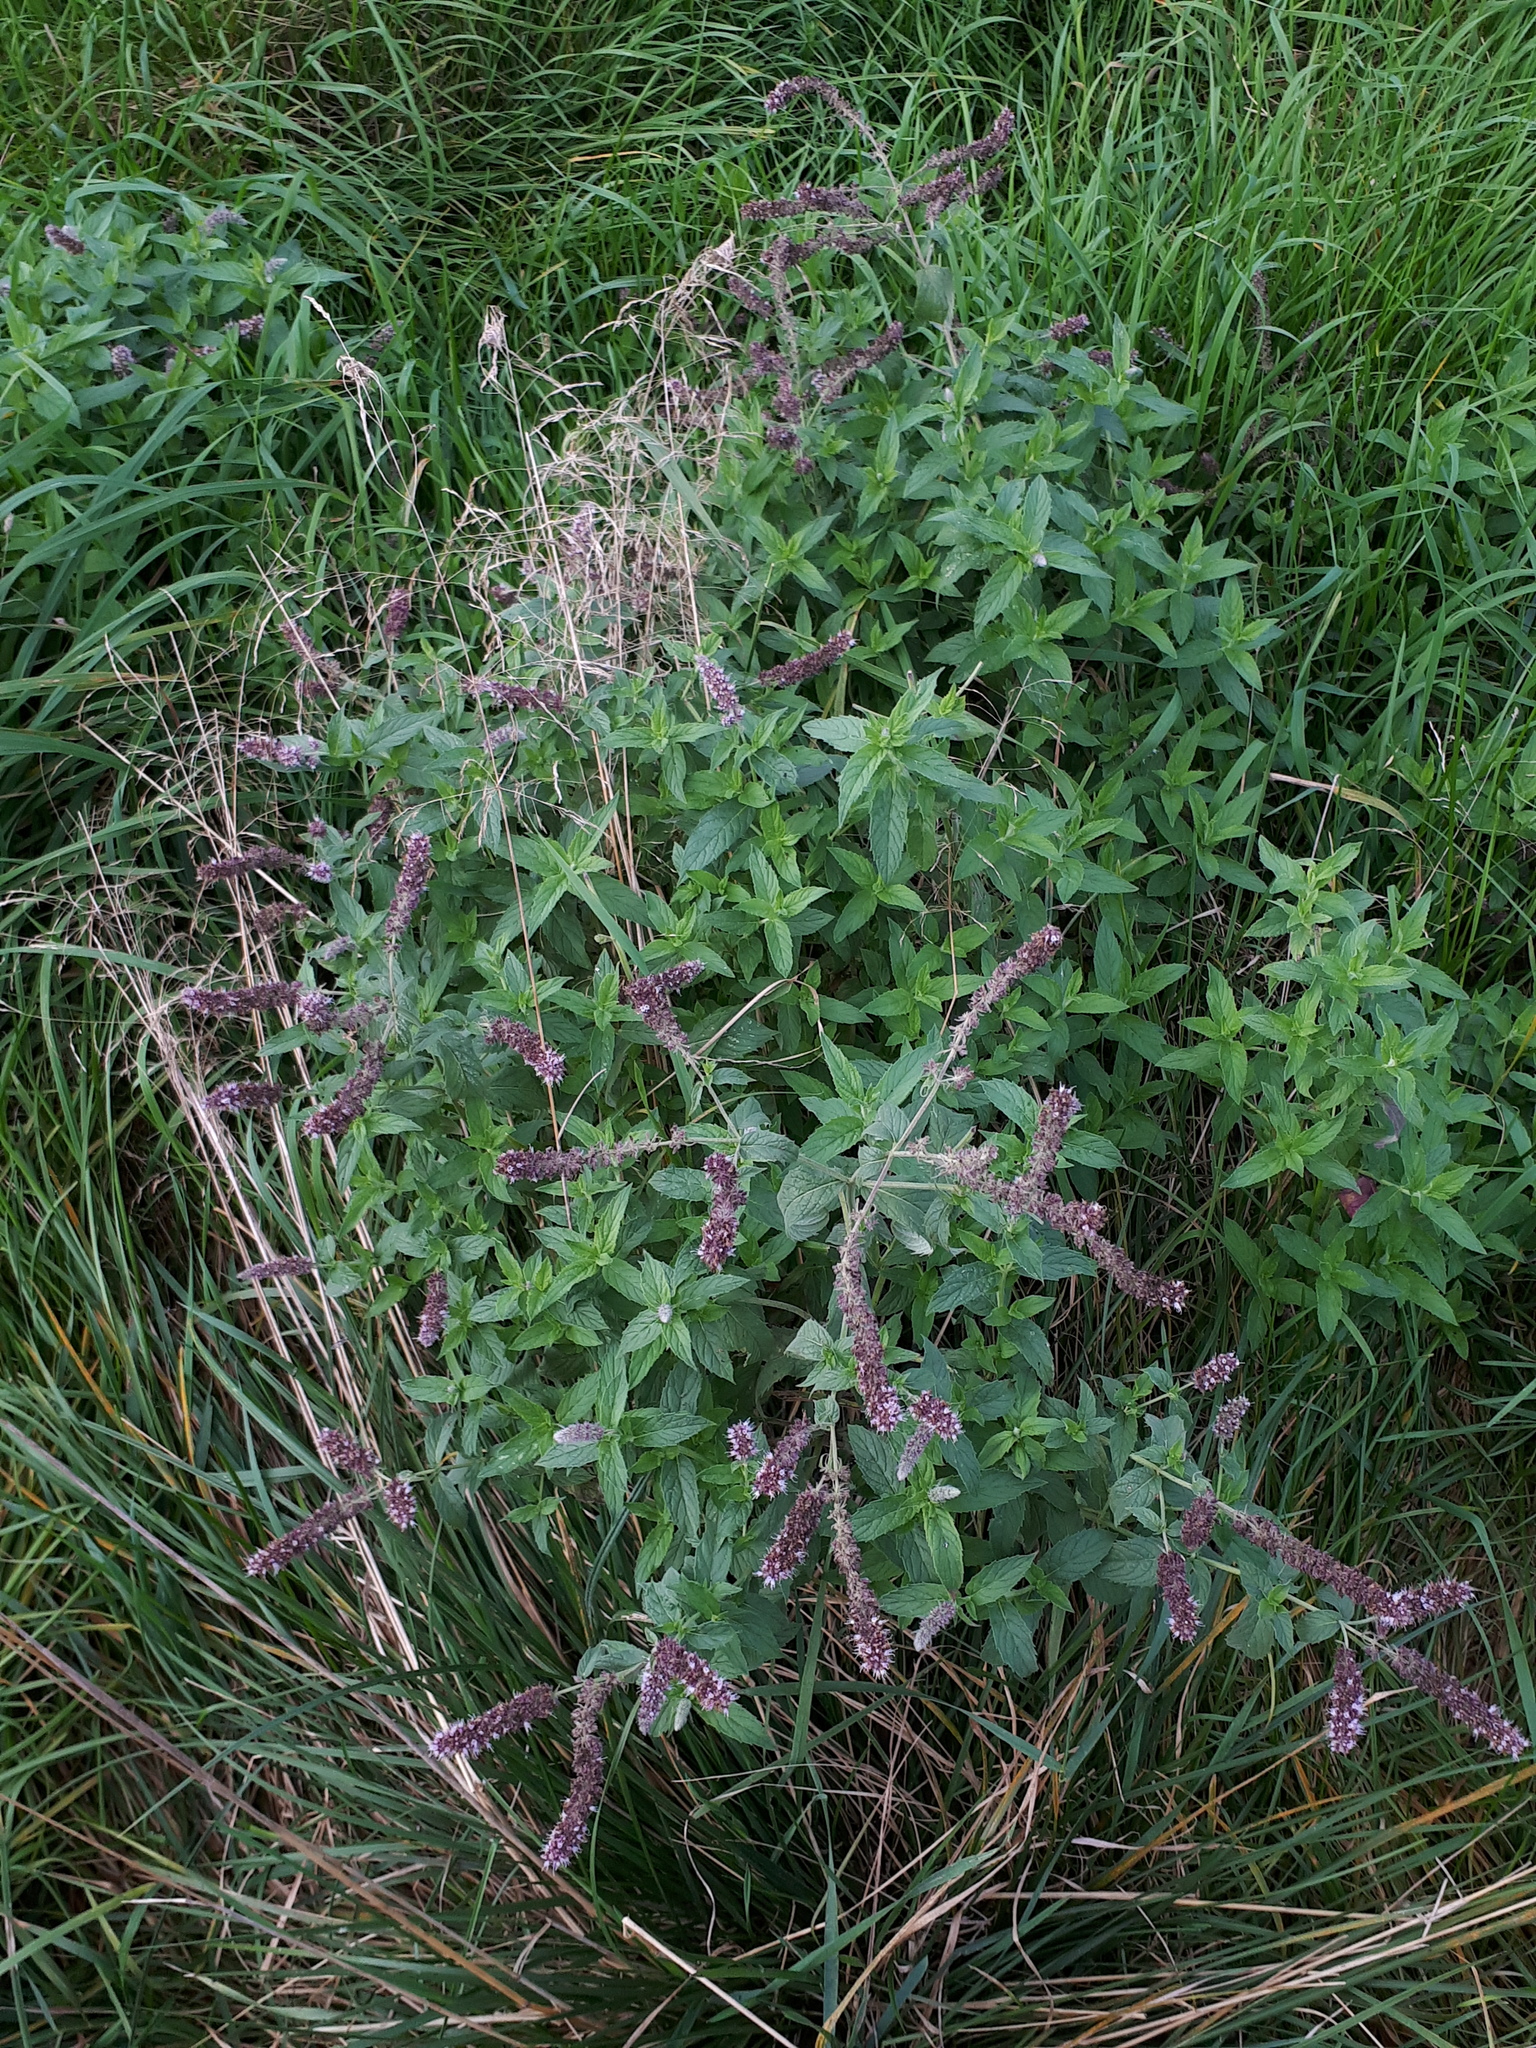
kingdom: Plantae
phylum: Tracheophyta
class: Magnoliopsida
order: Lamiales
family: Lamiaceae
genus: Mentha
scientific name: Mentha longifolia
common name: Horse mint
